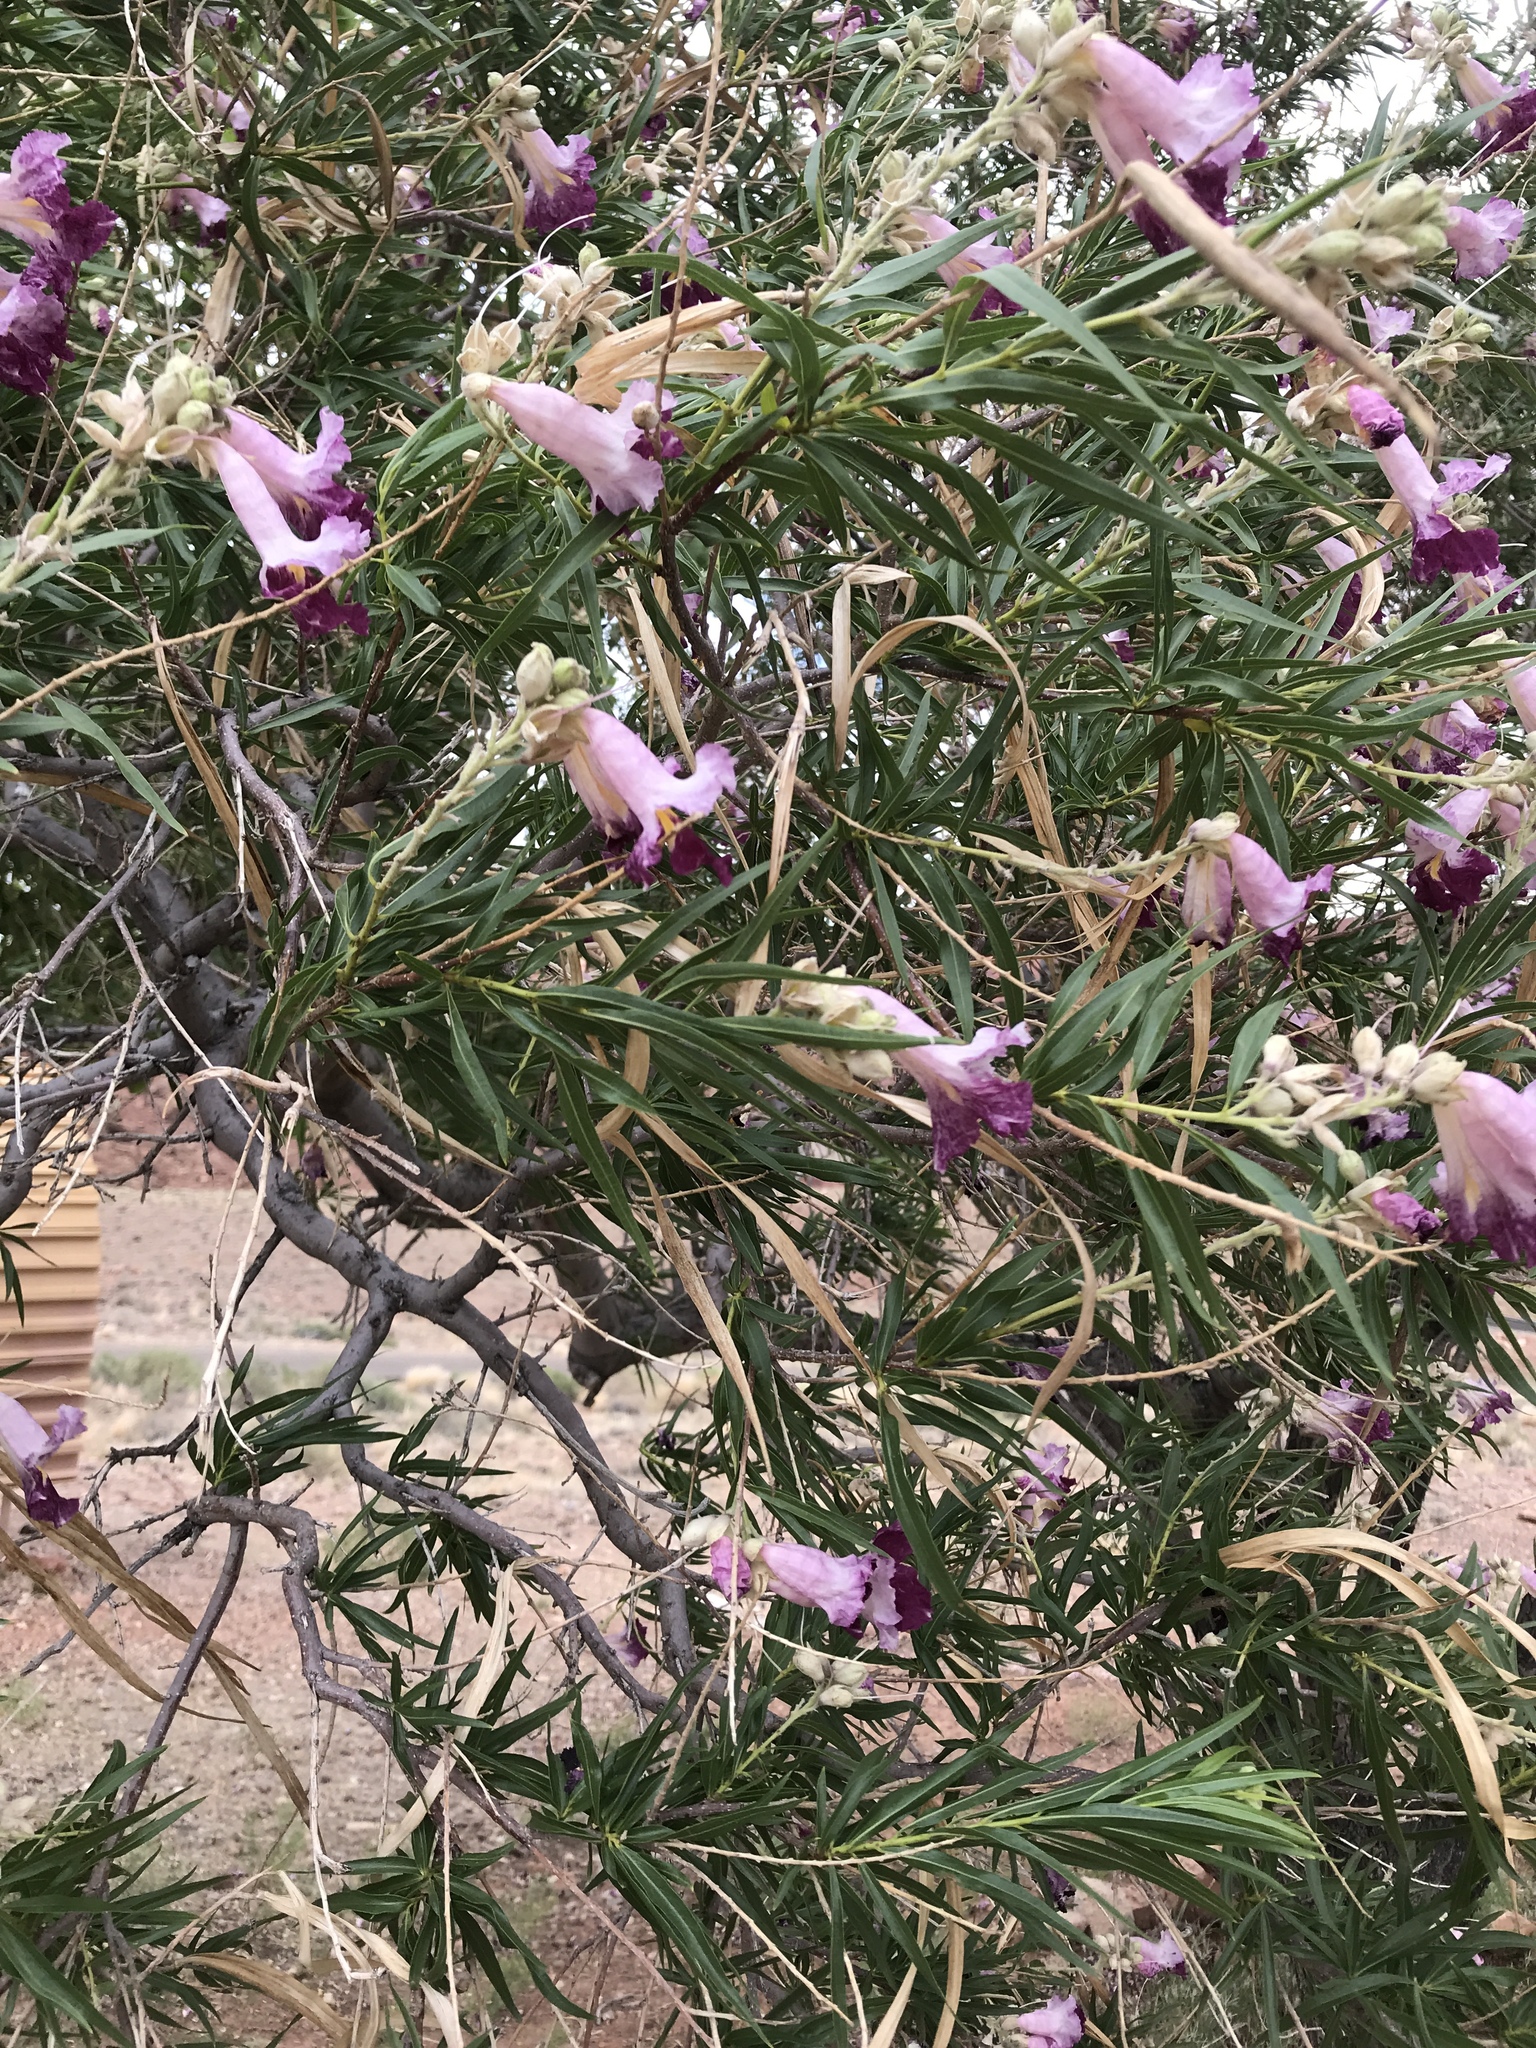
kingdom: Plantae
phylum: Tracheophyta
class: Magnoliopsida
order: Lamiales
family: Bignoniaceae
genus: Chilopsis
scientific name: Chilopsis linearis
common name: Desert-willow
